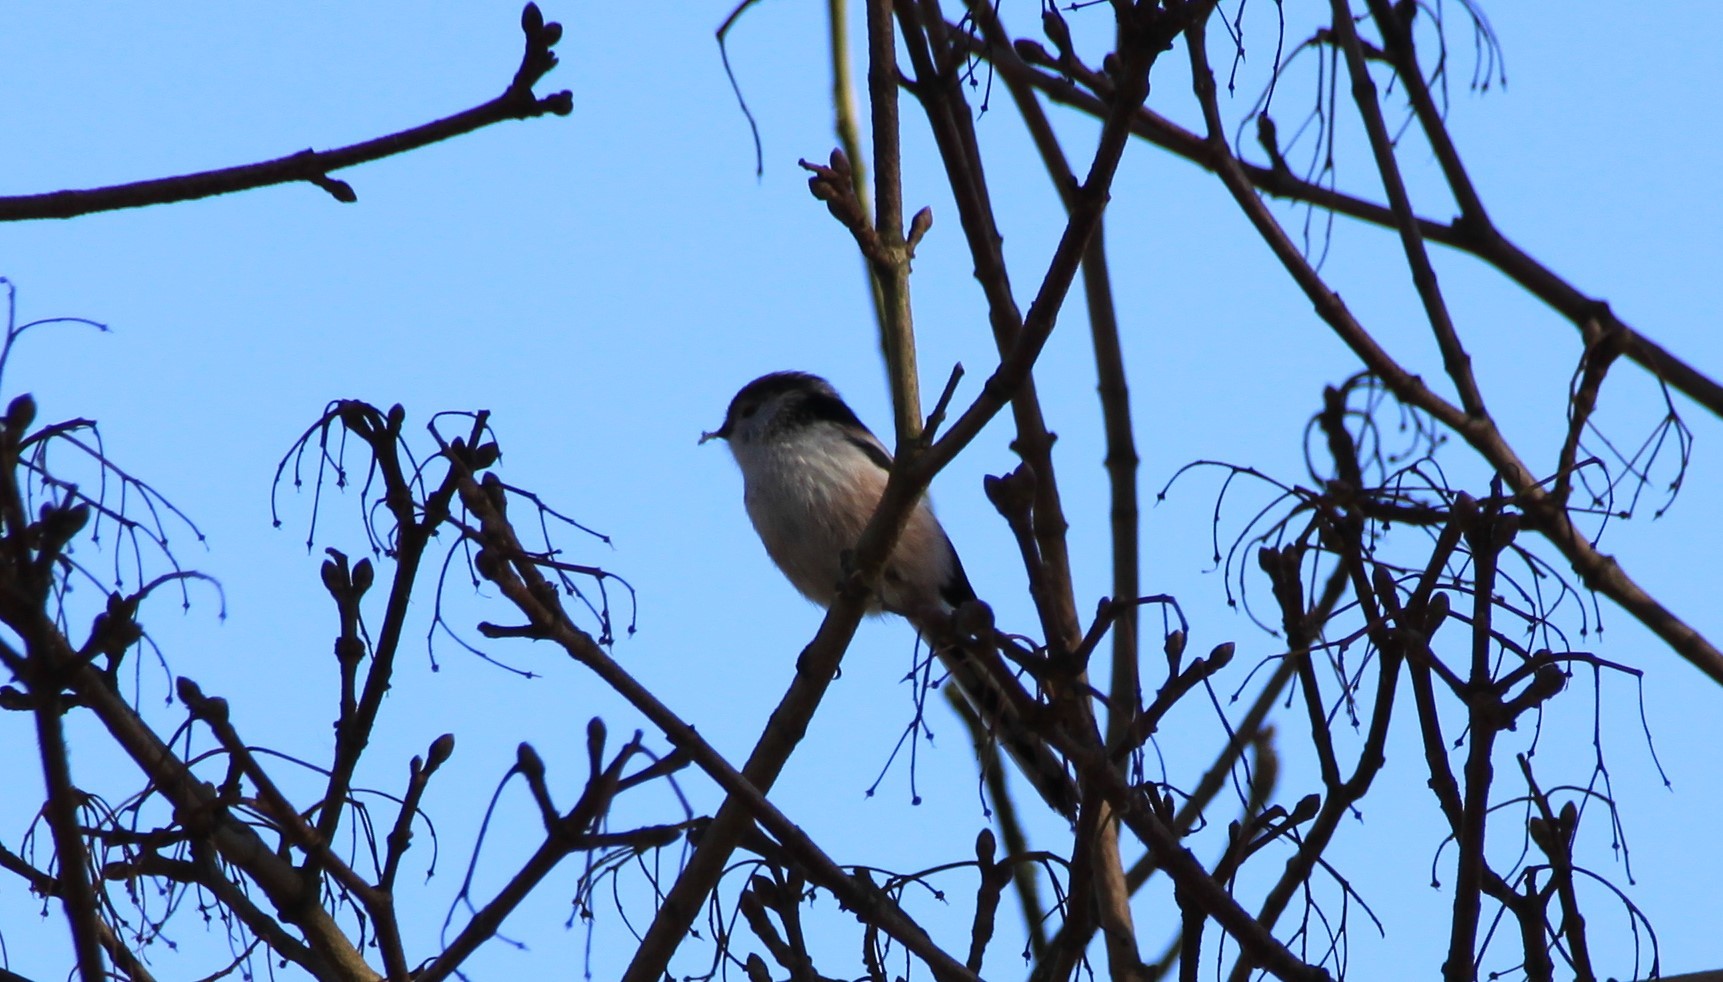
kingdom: Animalia
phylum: Chordata
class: Aves
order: Passeriformes
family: Aegithalidae
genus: Aegithalos
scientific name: Aegithalos caudatus
